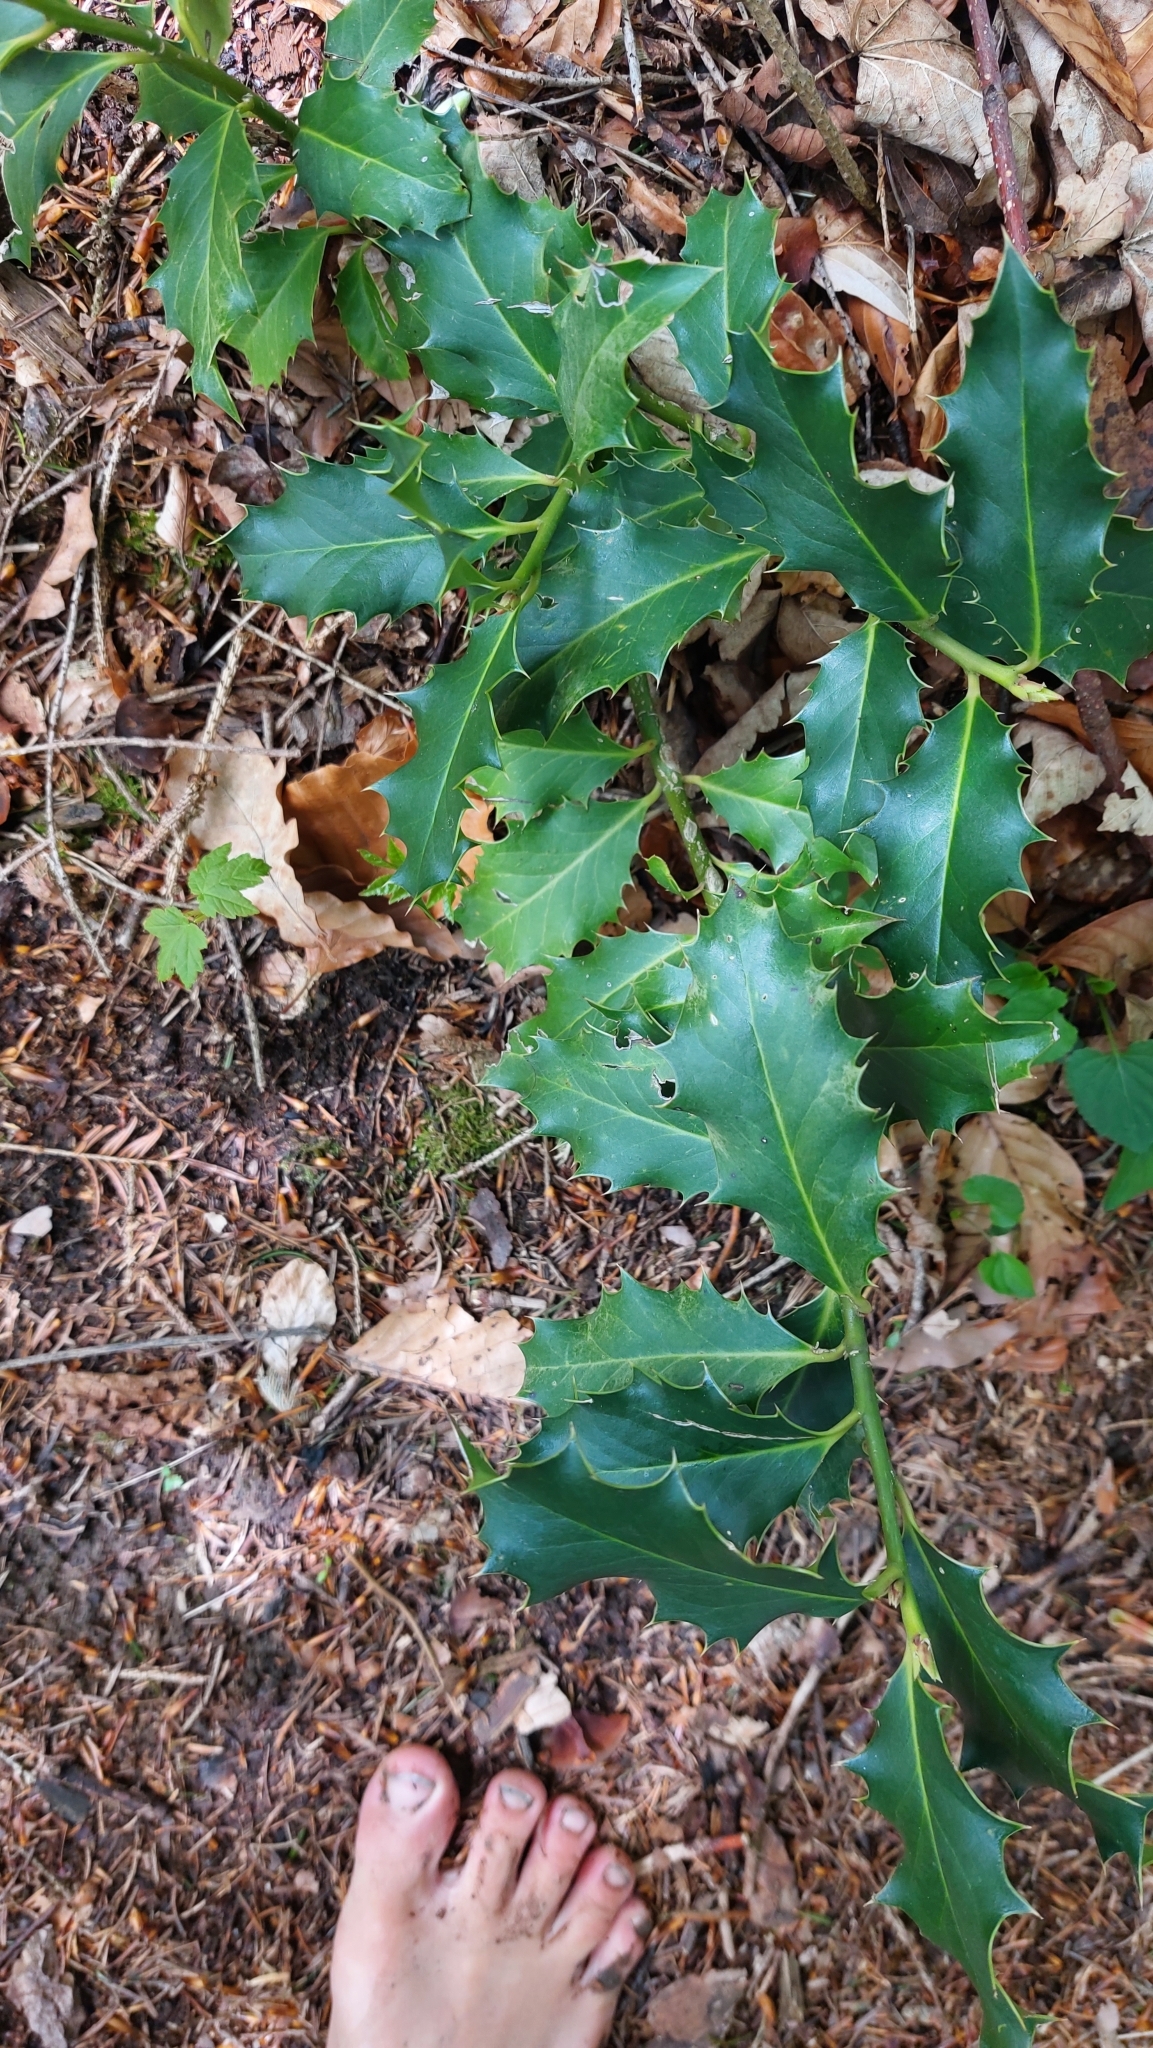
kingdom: Plantae
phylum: Tracheophyta
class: Magnoliopsida
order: Aquifoliales
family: Aquifoliaceae
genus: Ilex
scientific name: Ilex aquifolium
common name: English holly
